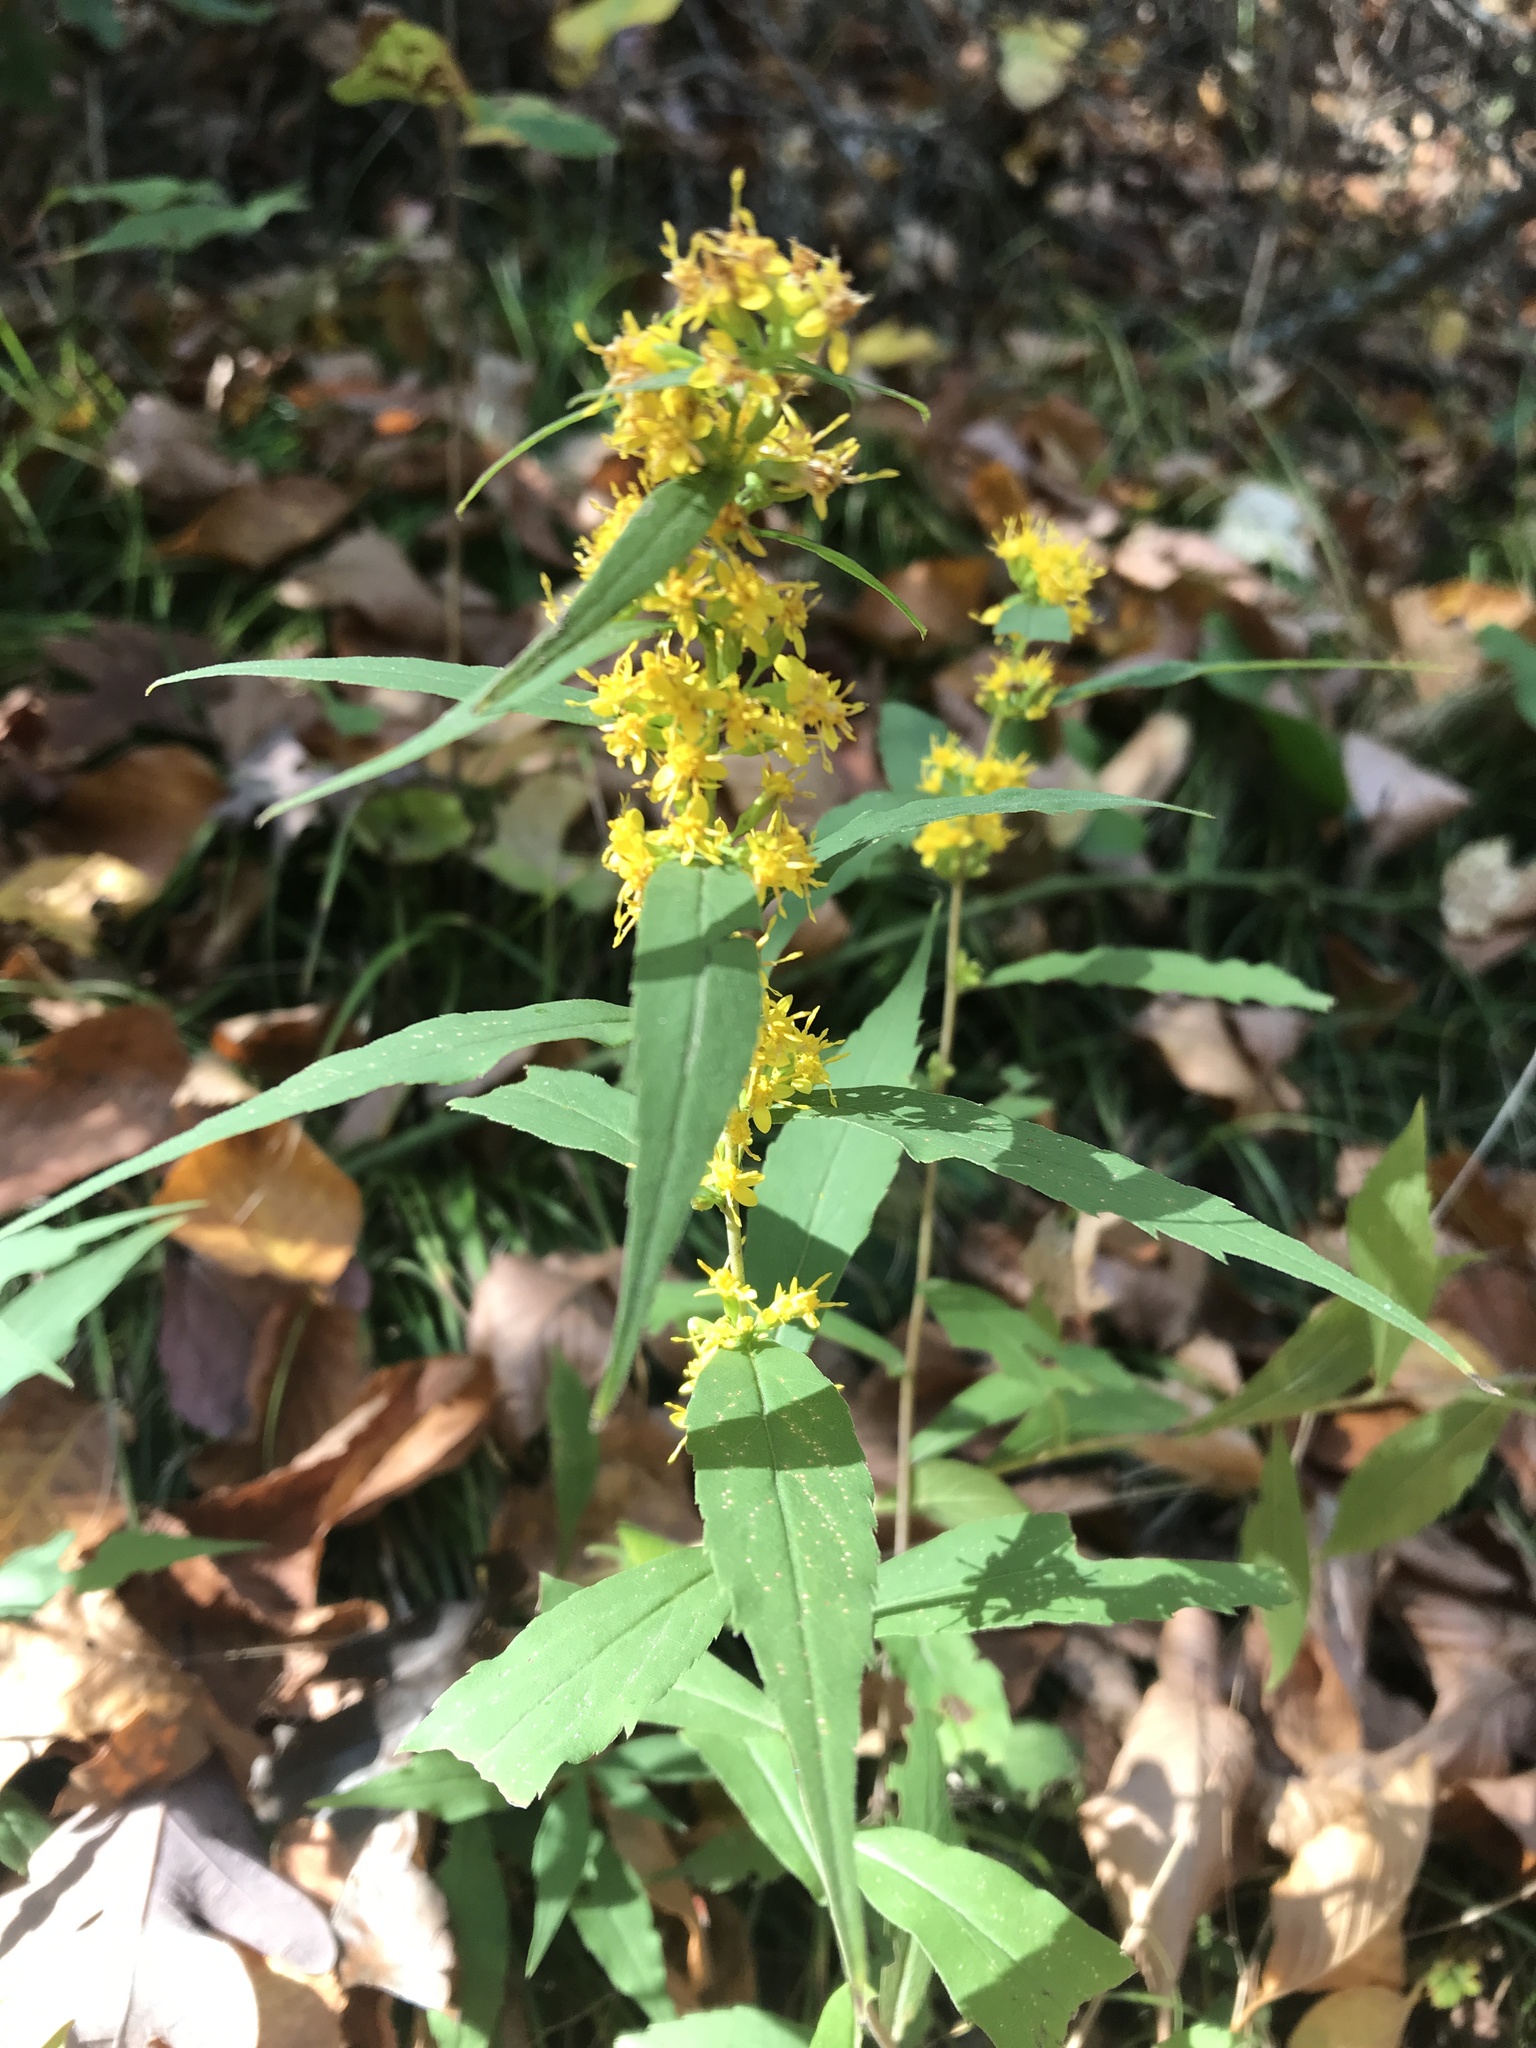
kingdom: Plantae
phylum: Tracheophyta
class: Magnoliopsida
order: Asterales
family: Asteraceae
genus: Solidago
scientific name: Solidago caesia
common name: Woodland goldenrod
